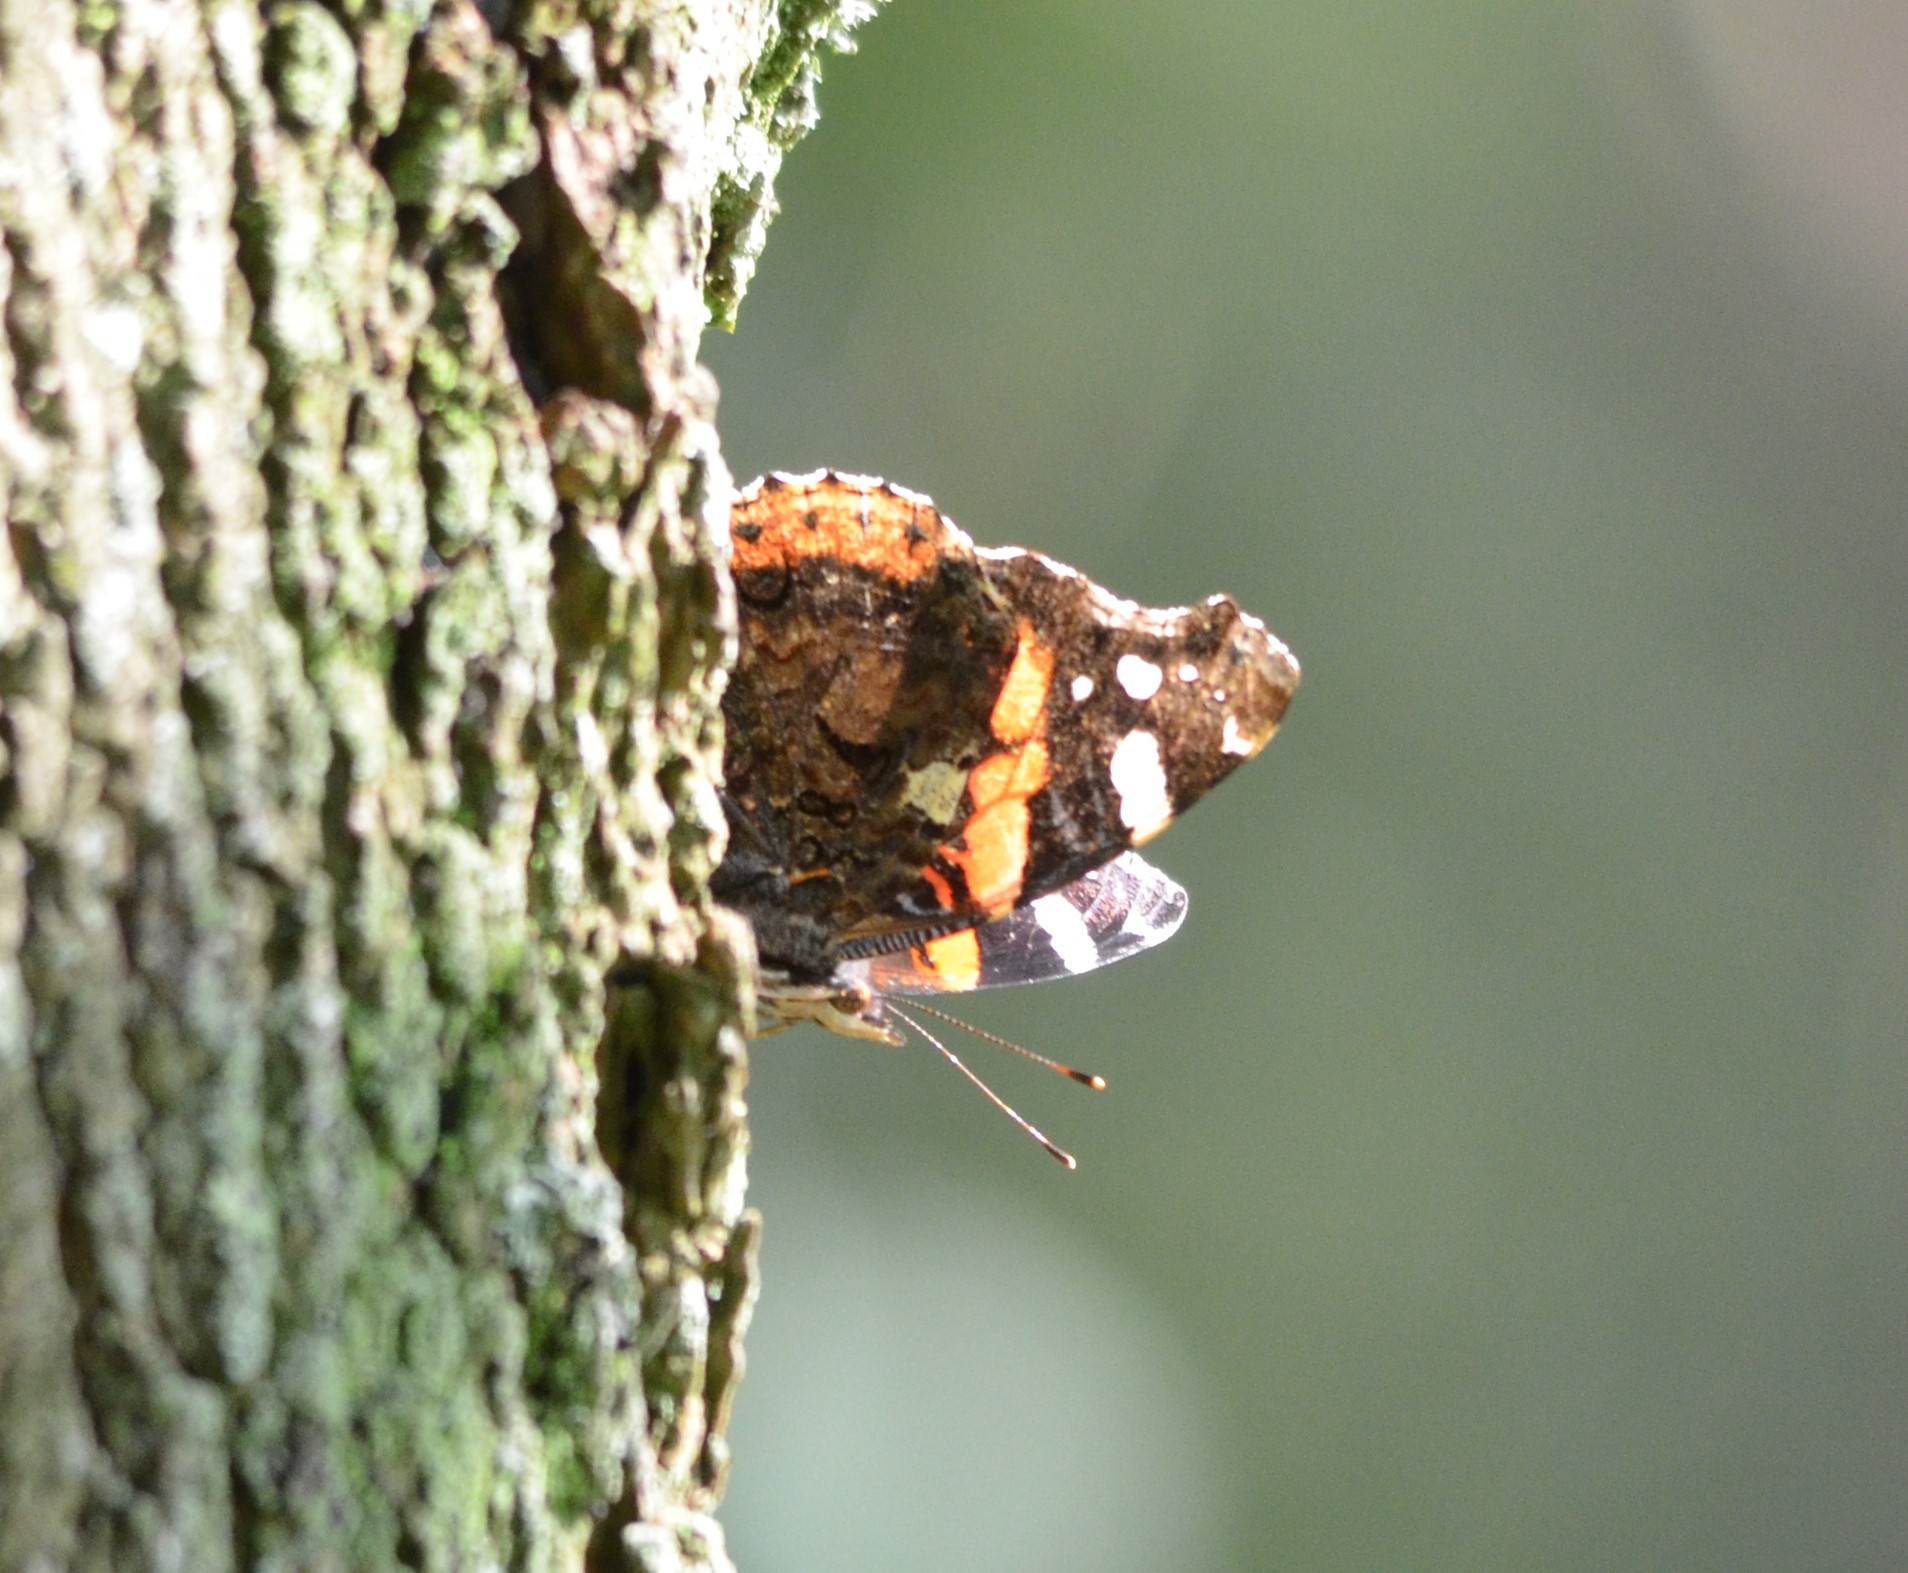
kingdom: Animalia
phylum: Arthropoda
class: Insecta
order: Lepidoptera
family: Nymphalidae
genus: Vanessa
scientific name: Vanessa atalanta
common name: Red admiral
